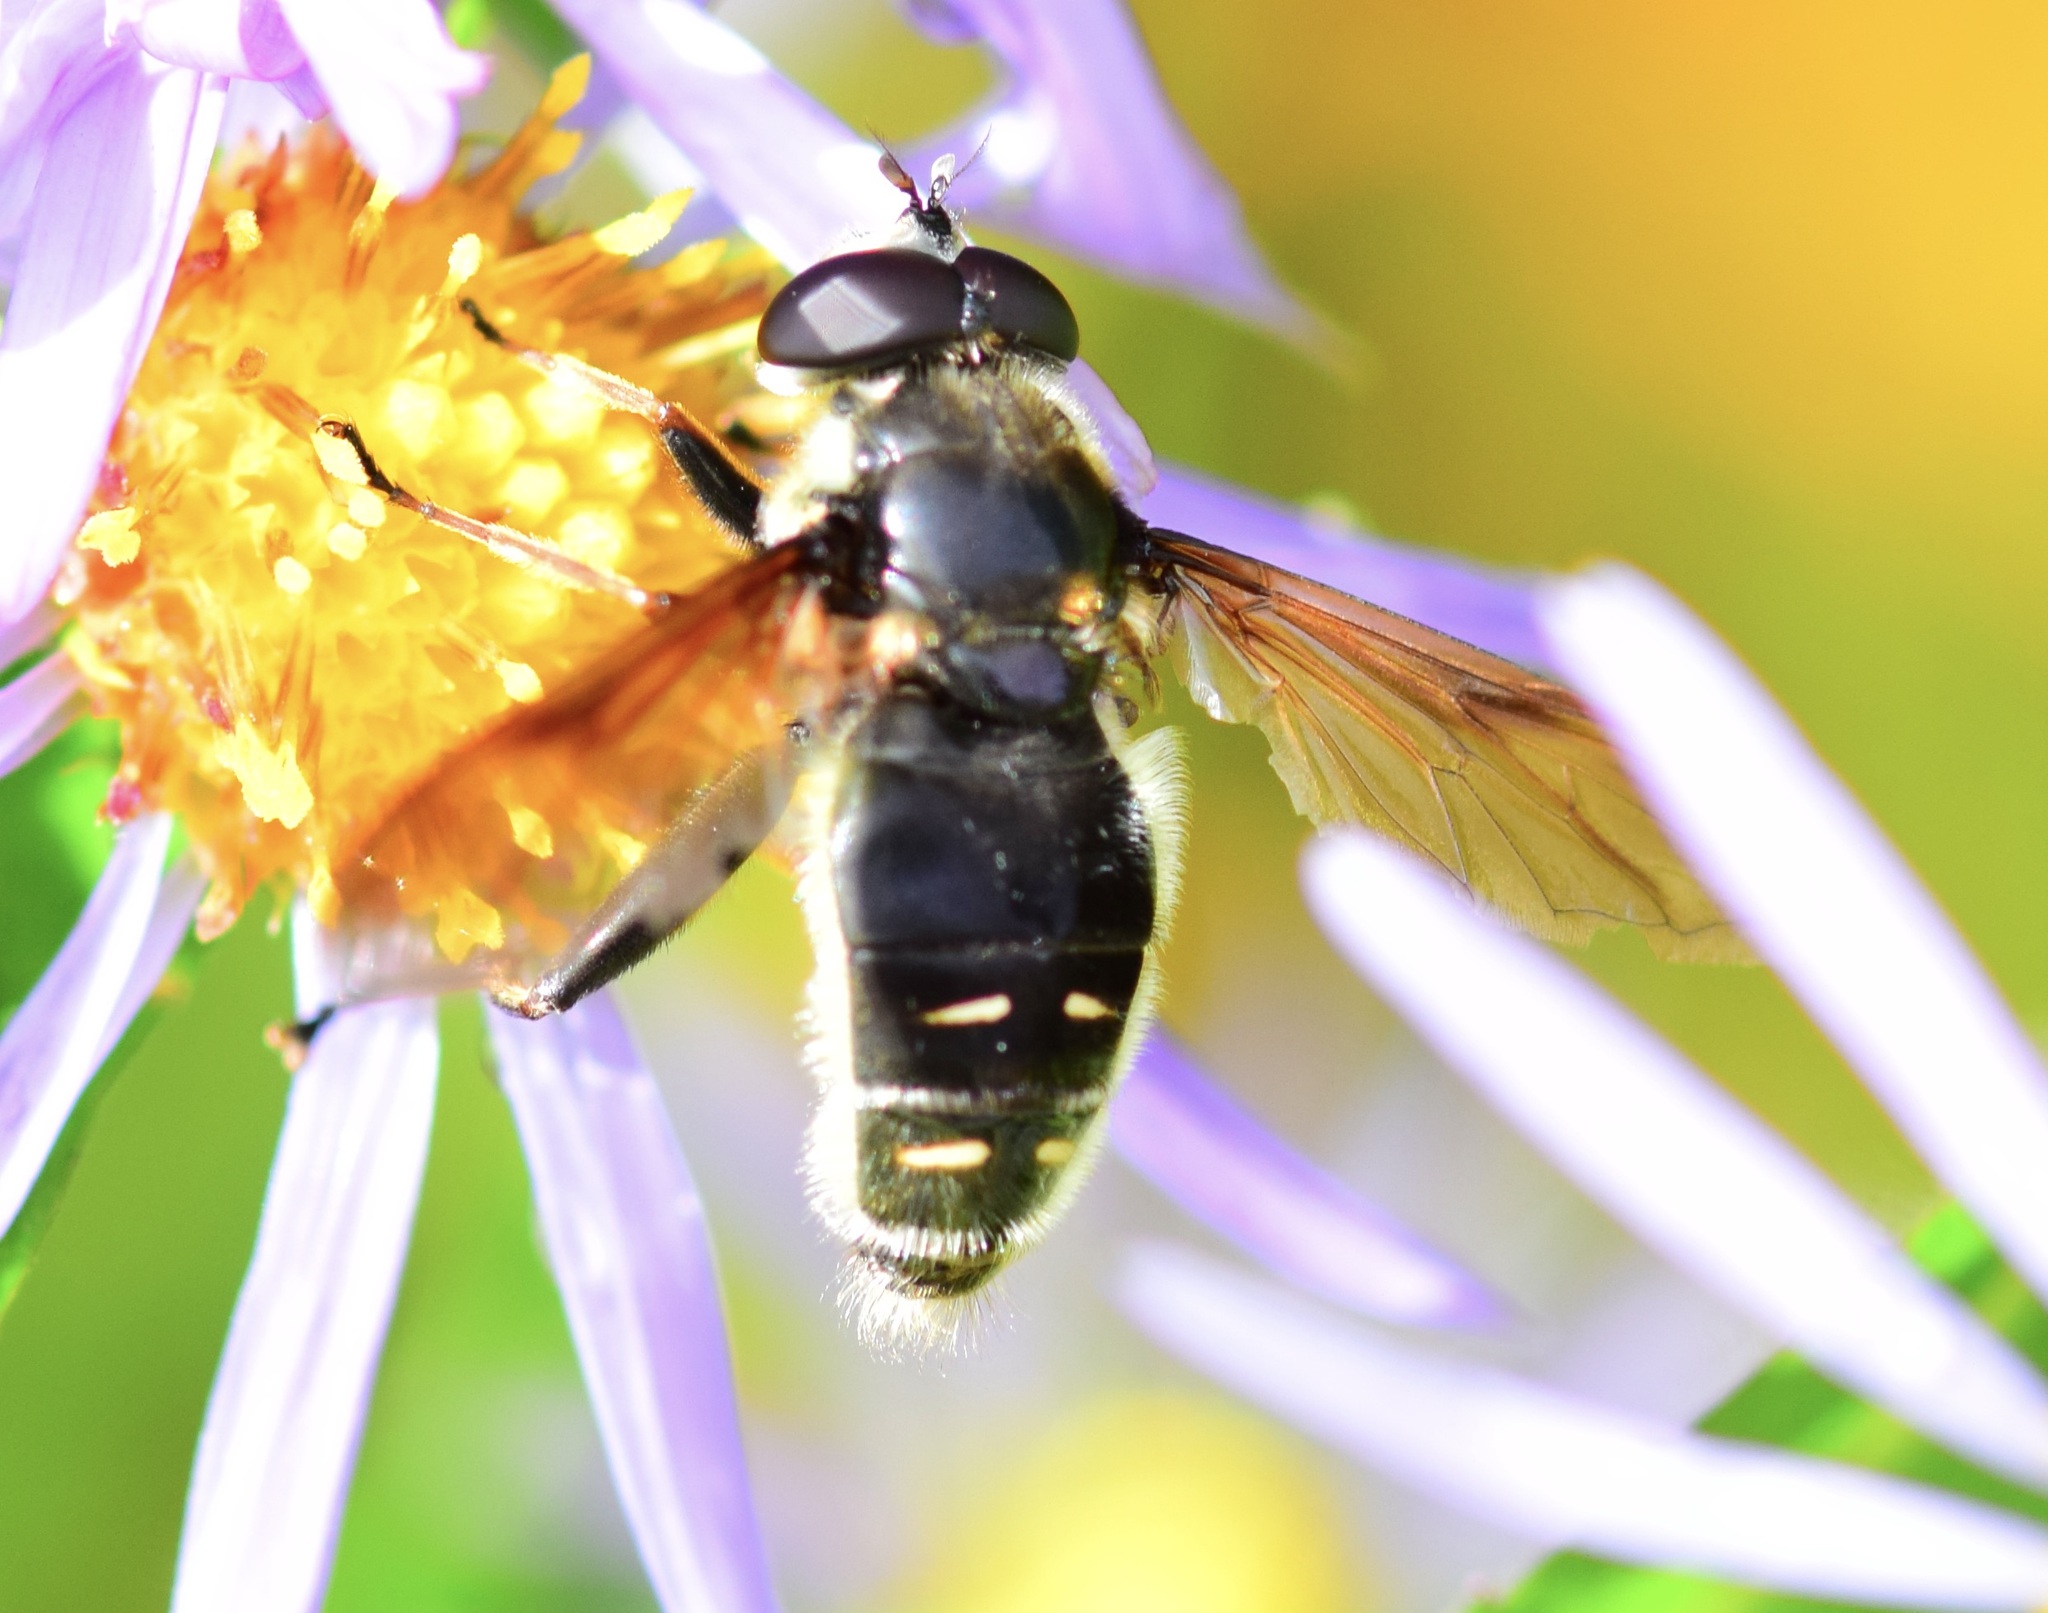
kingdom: Animalia
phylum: Arthropoda
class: Insecta
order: Diptera
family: Syrphidae
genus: Sericomyia
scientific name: Sericomyia militaris
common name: Narrow-banded pond fly
